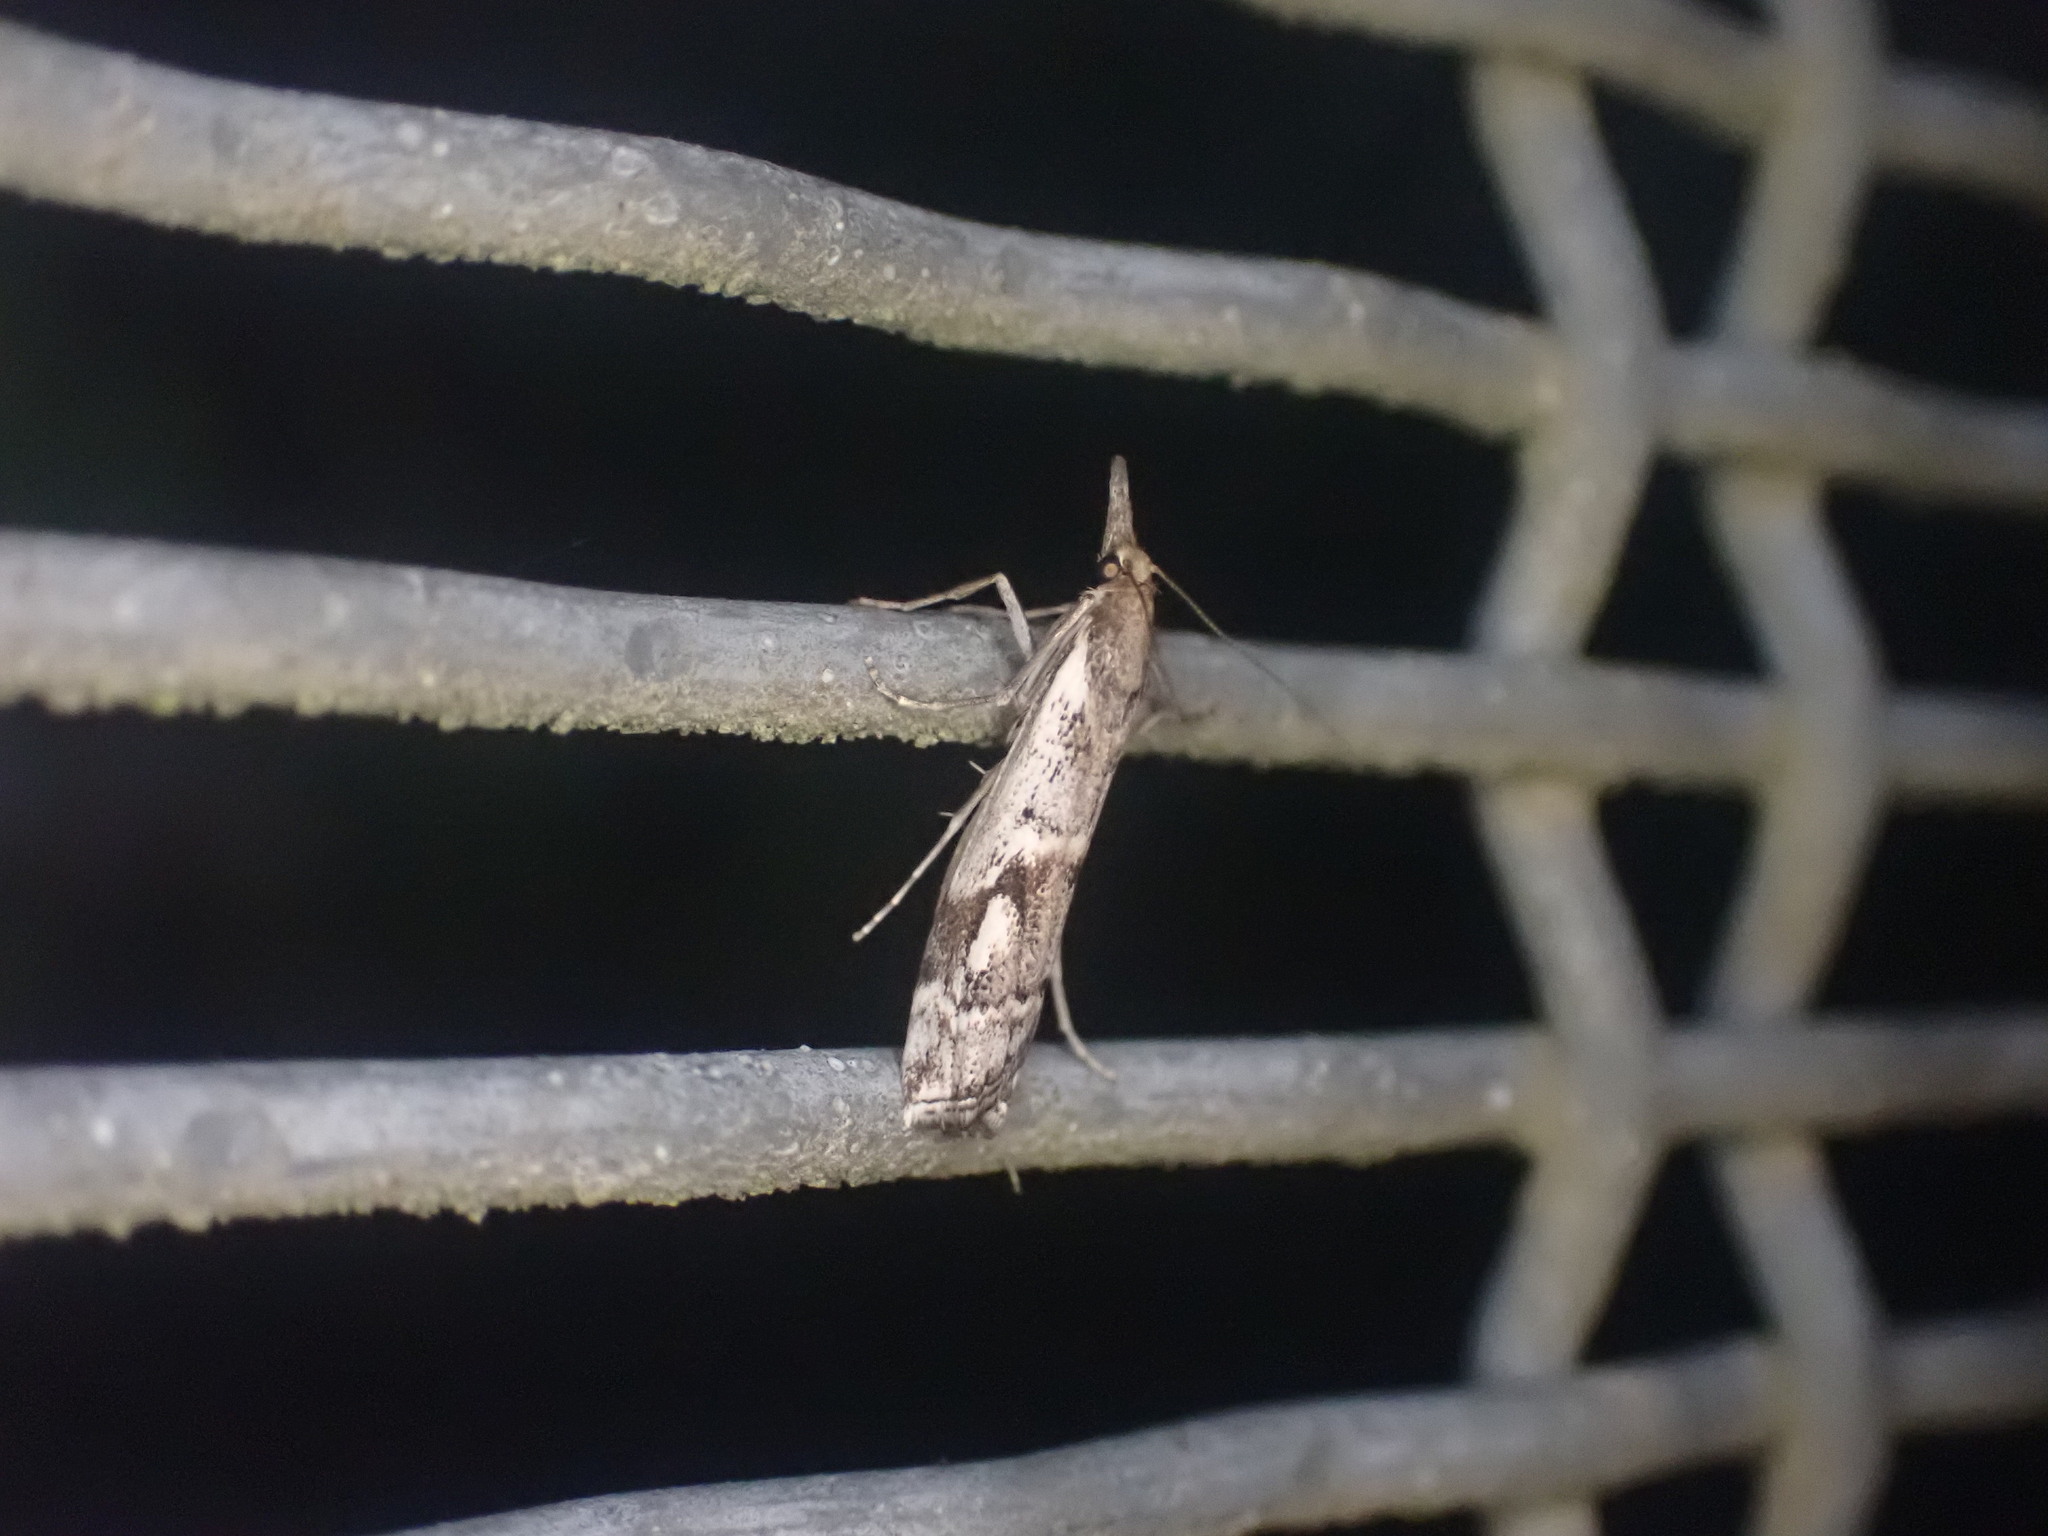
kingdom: Animalia
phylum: Arthropoda
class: Insecta
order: Lepidoptera
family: Crambidae
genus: Orocrambus
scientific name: Orocrambus vulgaris
